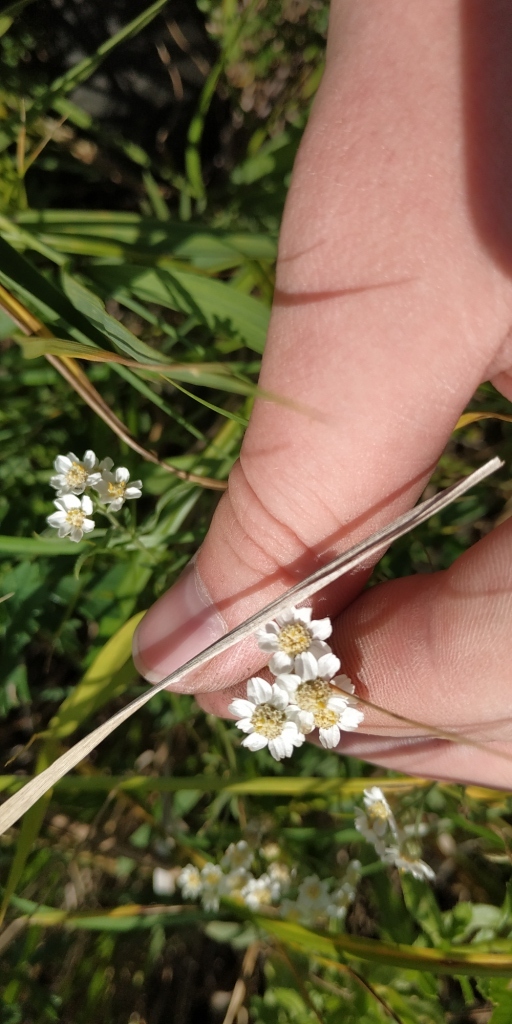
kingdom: Plantae
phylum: Tracheophyta
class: Magnoliopsida
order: Asterales
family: Asteraceae
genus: Achillea
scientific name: Achillea salicifolia
